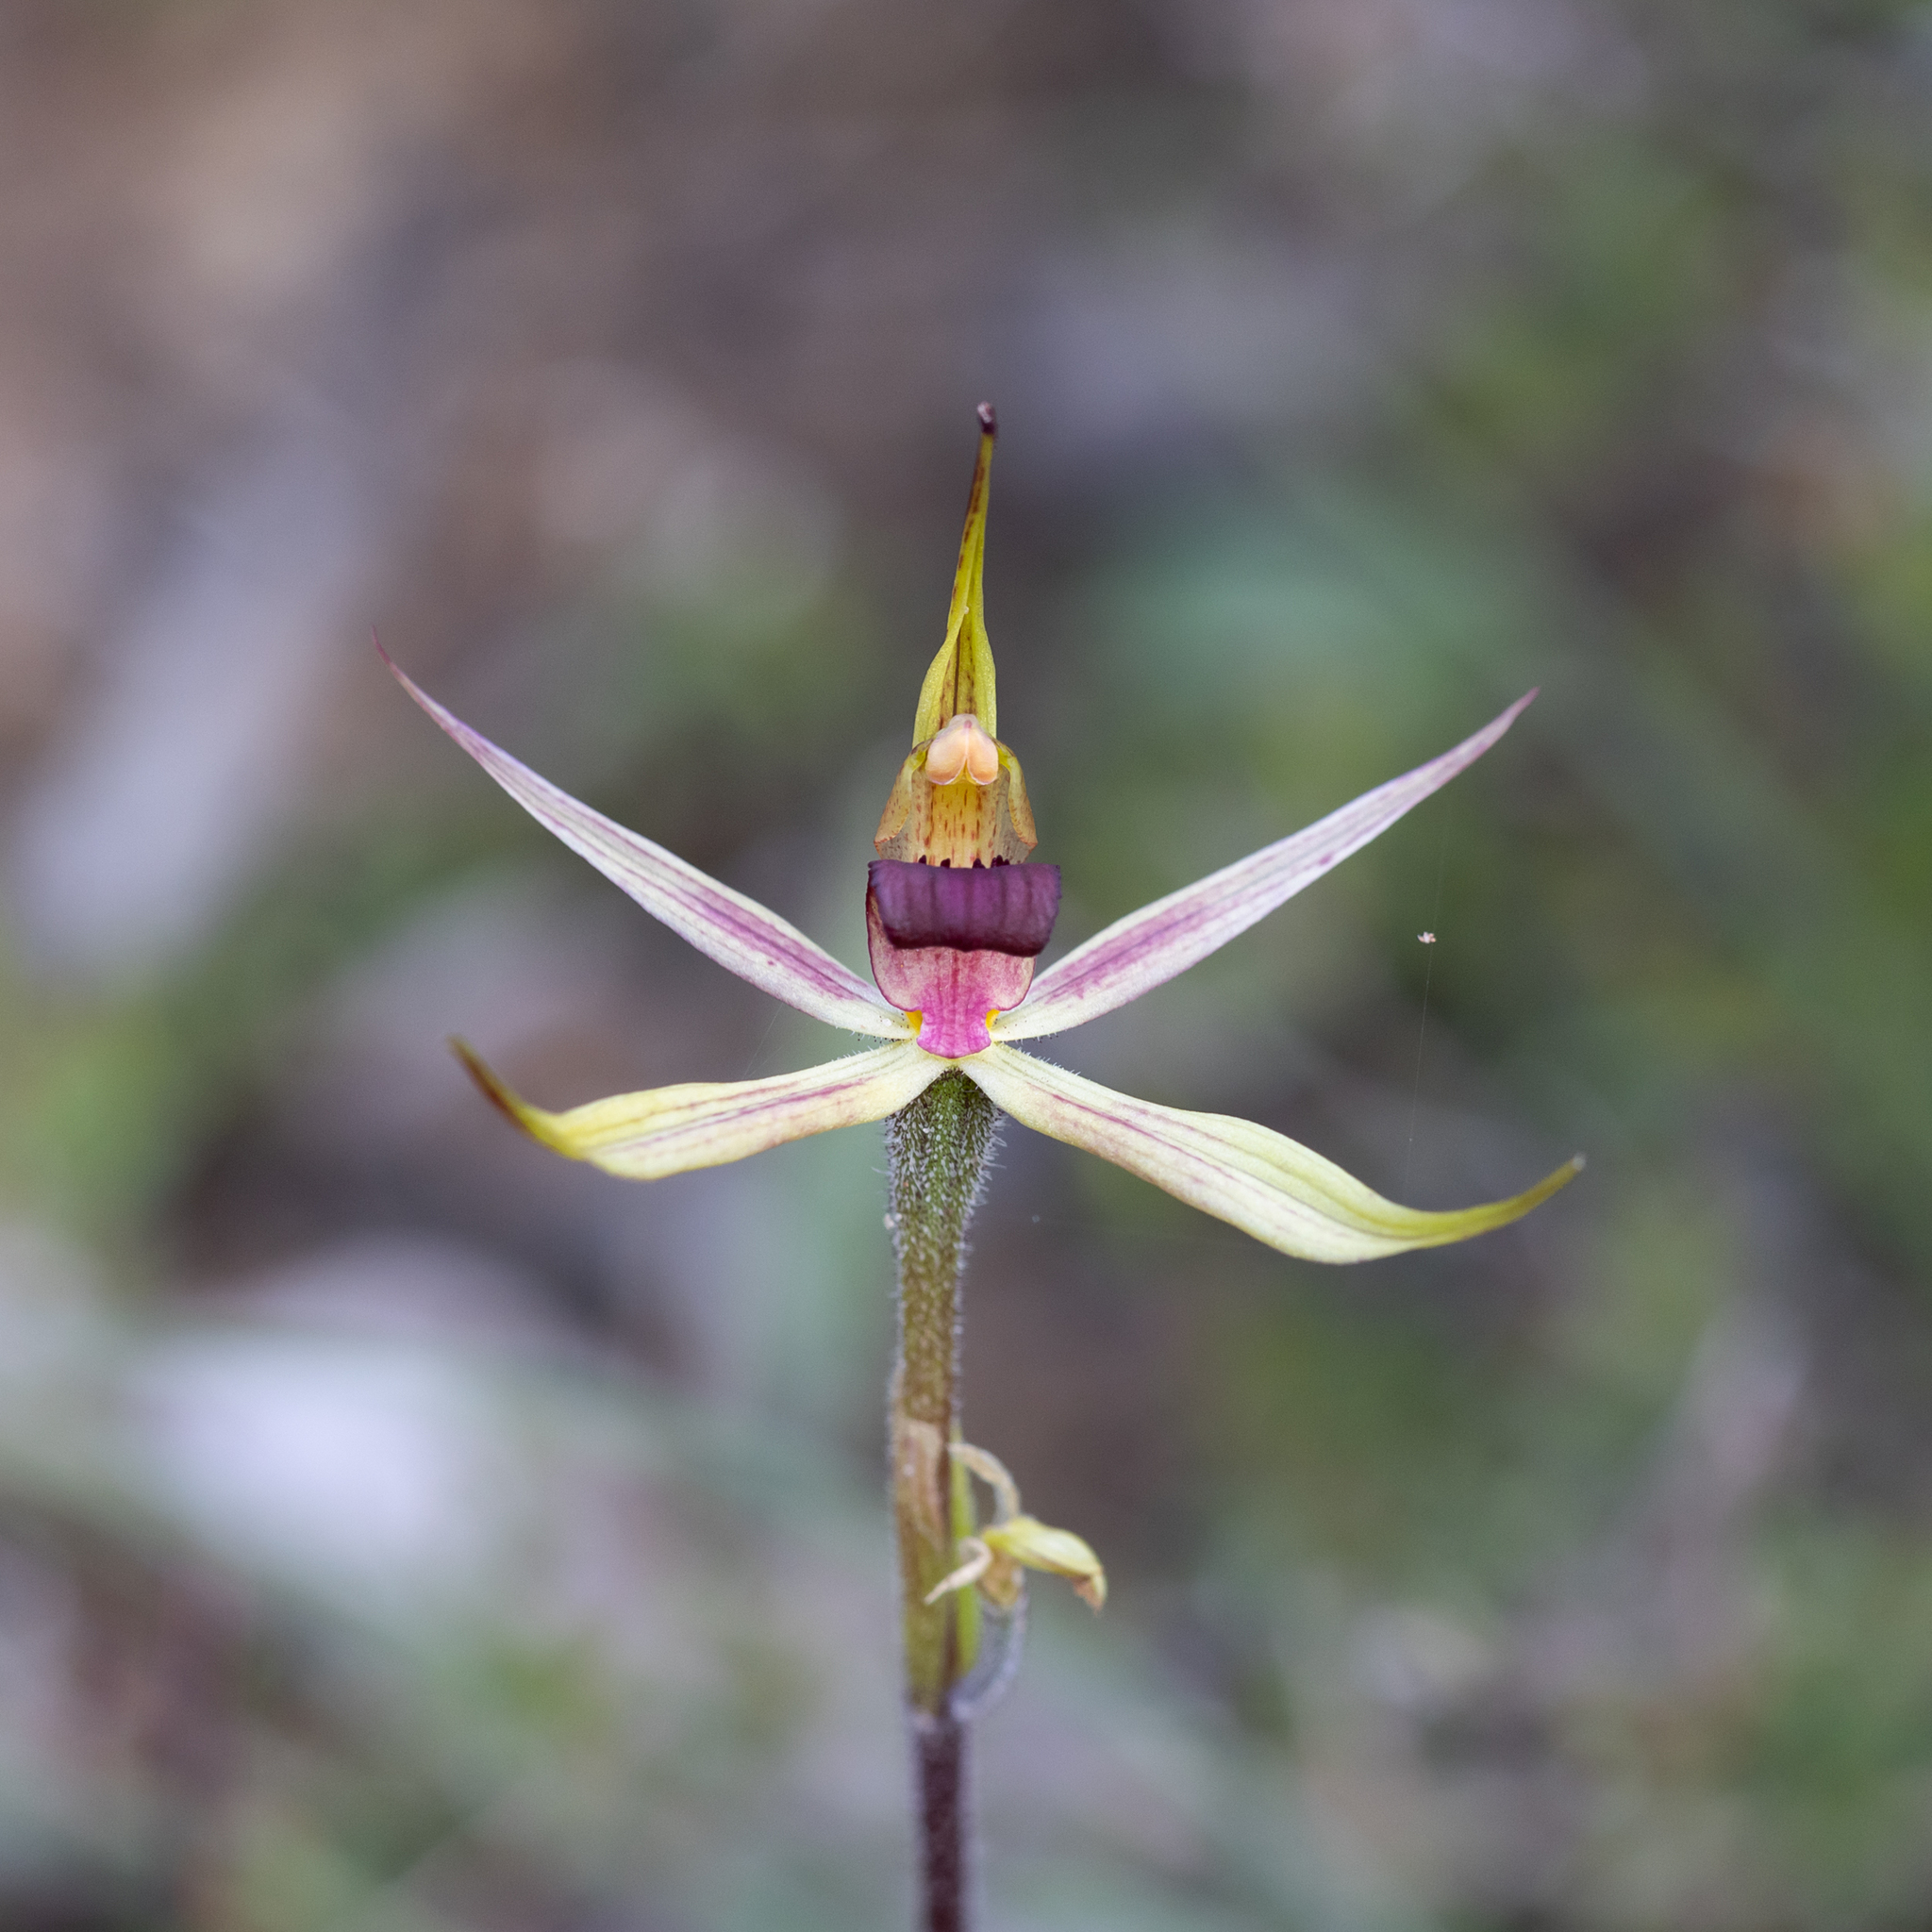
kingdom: Plantae
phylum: Tracheophyta
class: Liliopsida
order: Asparagales
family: Orchidaceae
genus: Caladenia
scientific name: Caladenia leptochila
